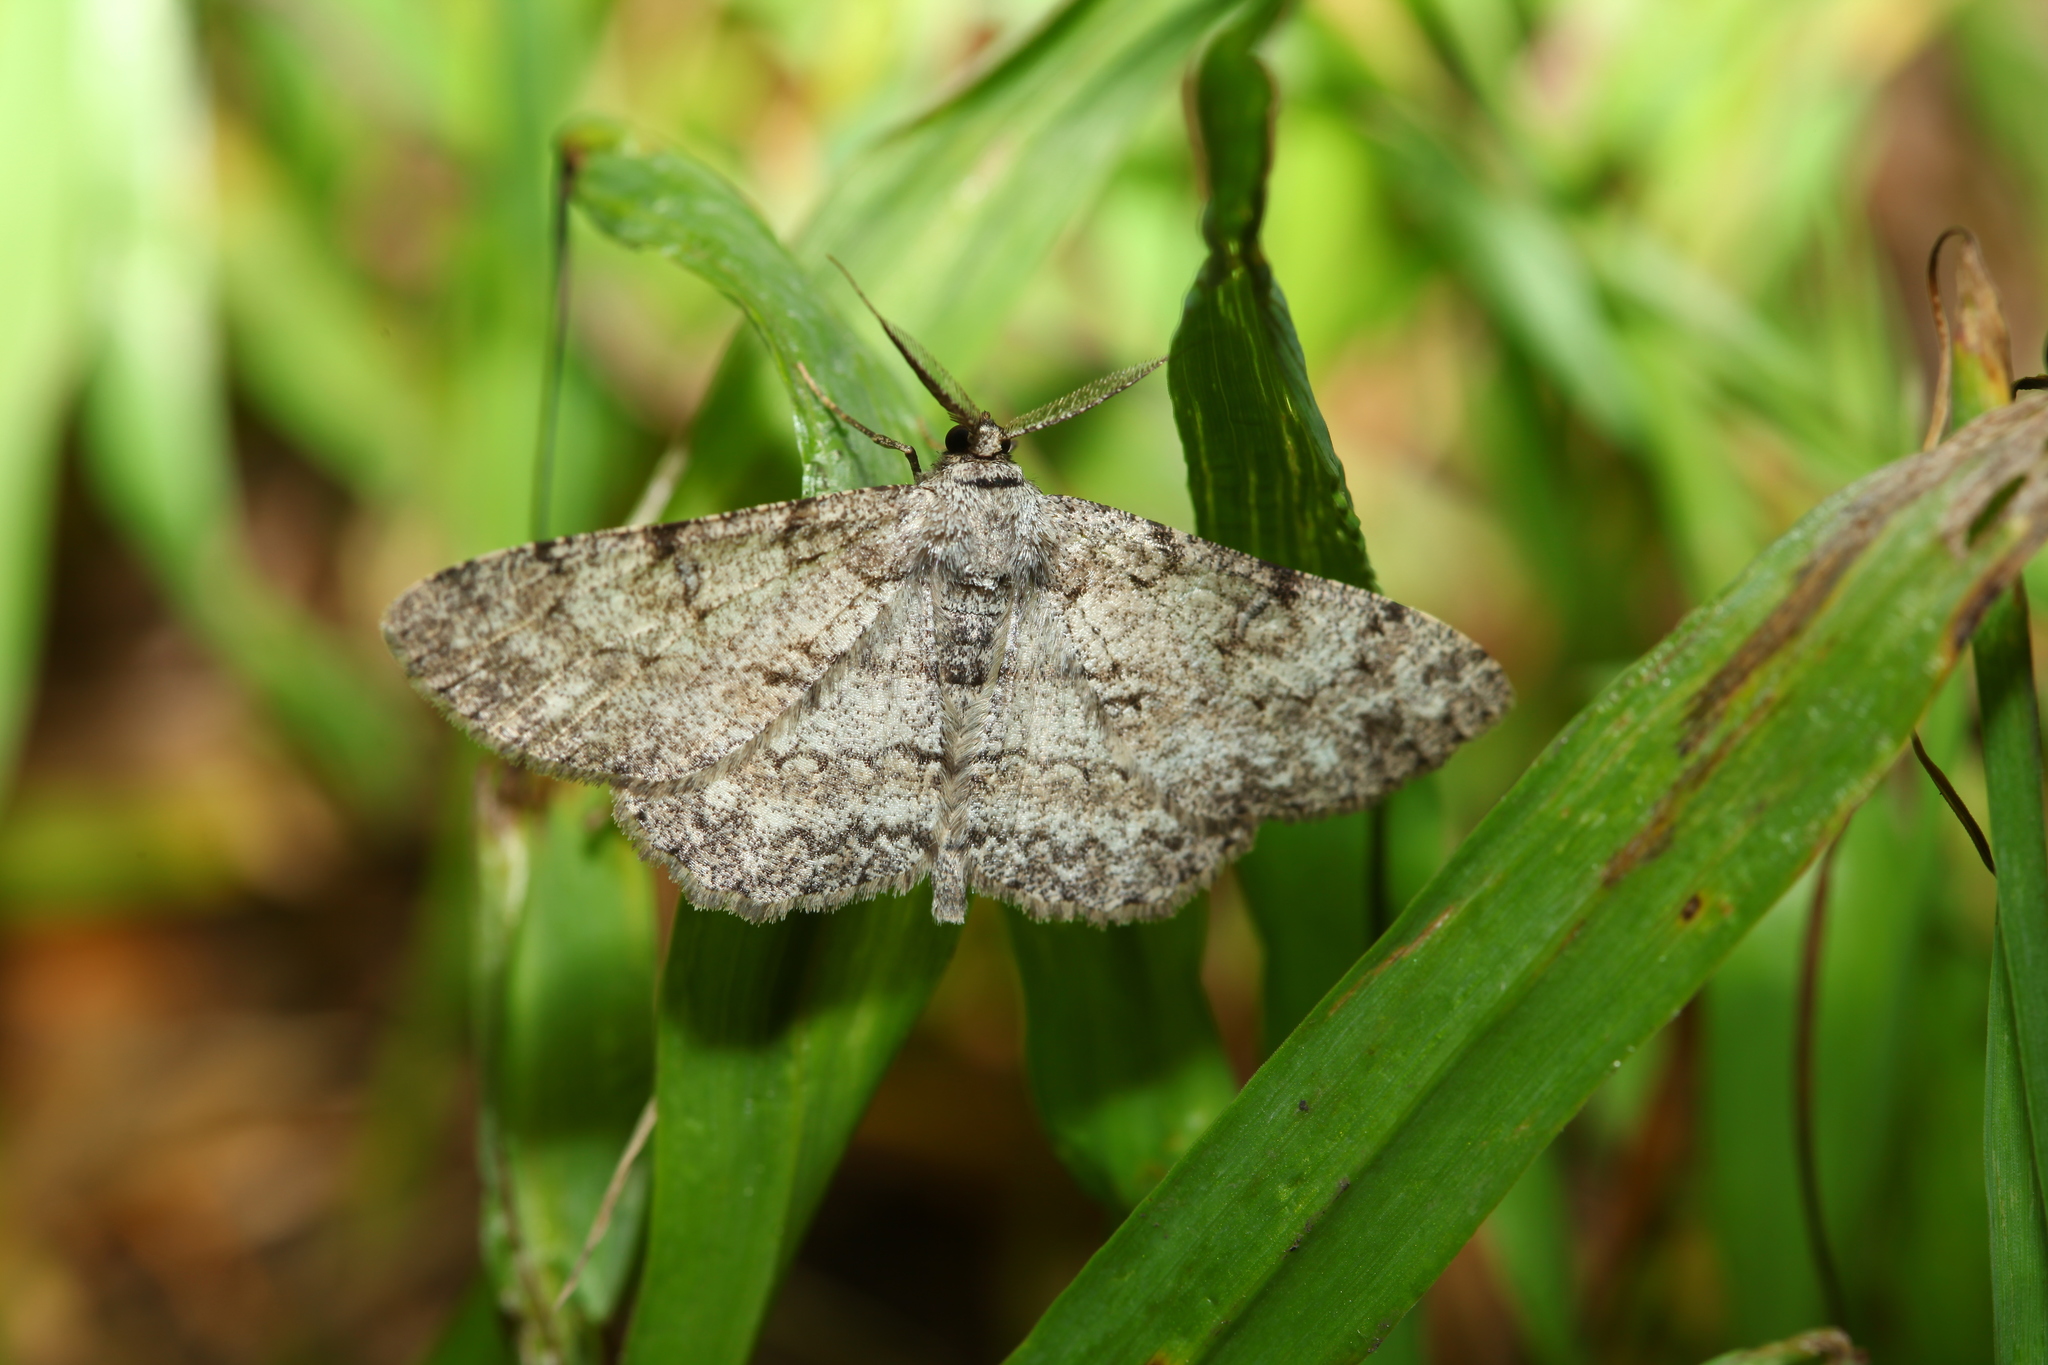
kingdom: Animalia
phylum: Arthropoda
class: Insecta
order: Lepidoptera
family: Geometridae
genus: Hypomecis
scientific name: Hypomecis punctinalis
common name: Pale oak beauty
